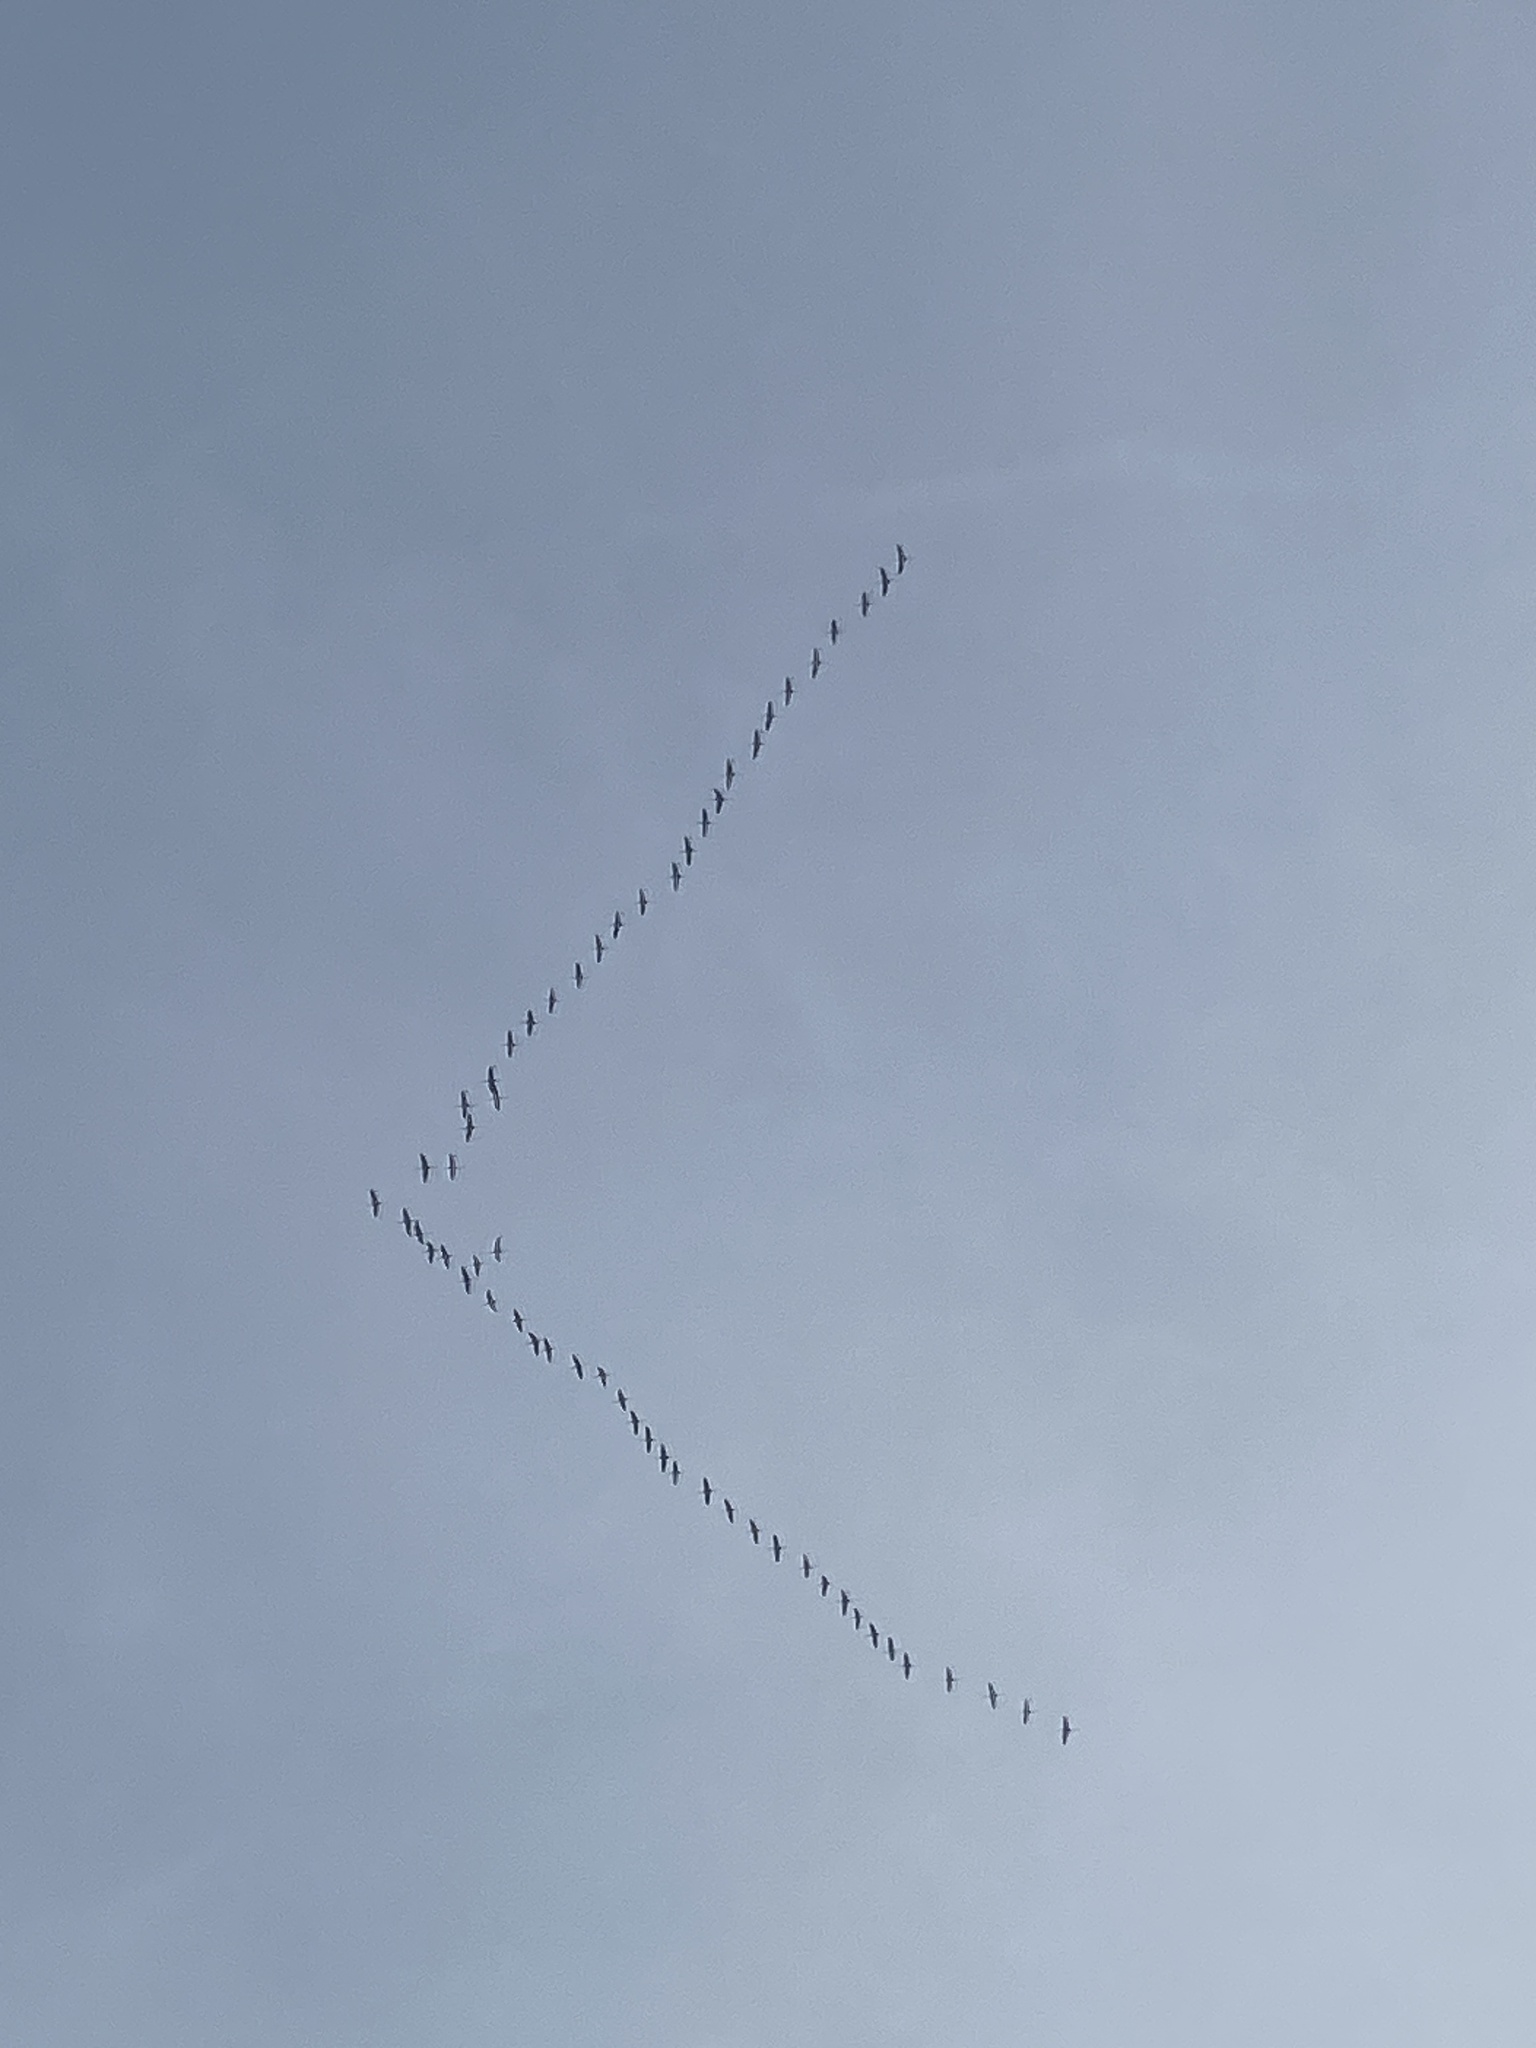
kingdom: Animalia
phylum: Chordata
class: Aves
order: Gruiformes
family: Gruidae
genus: Grus
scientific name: Grus grus
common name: Common crane
